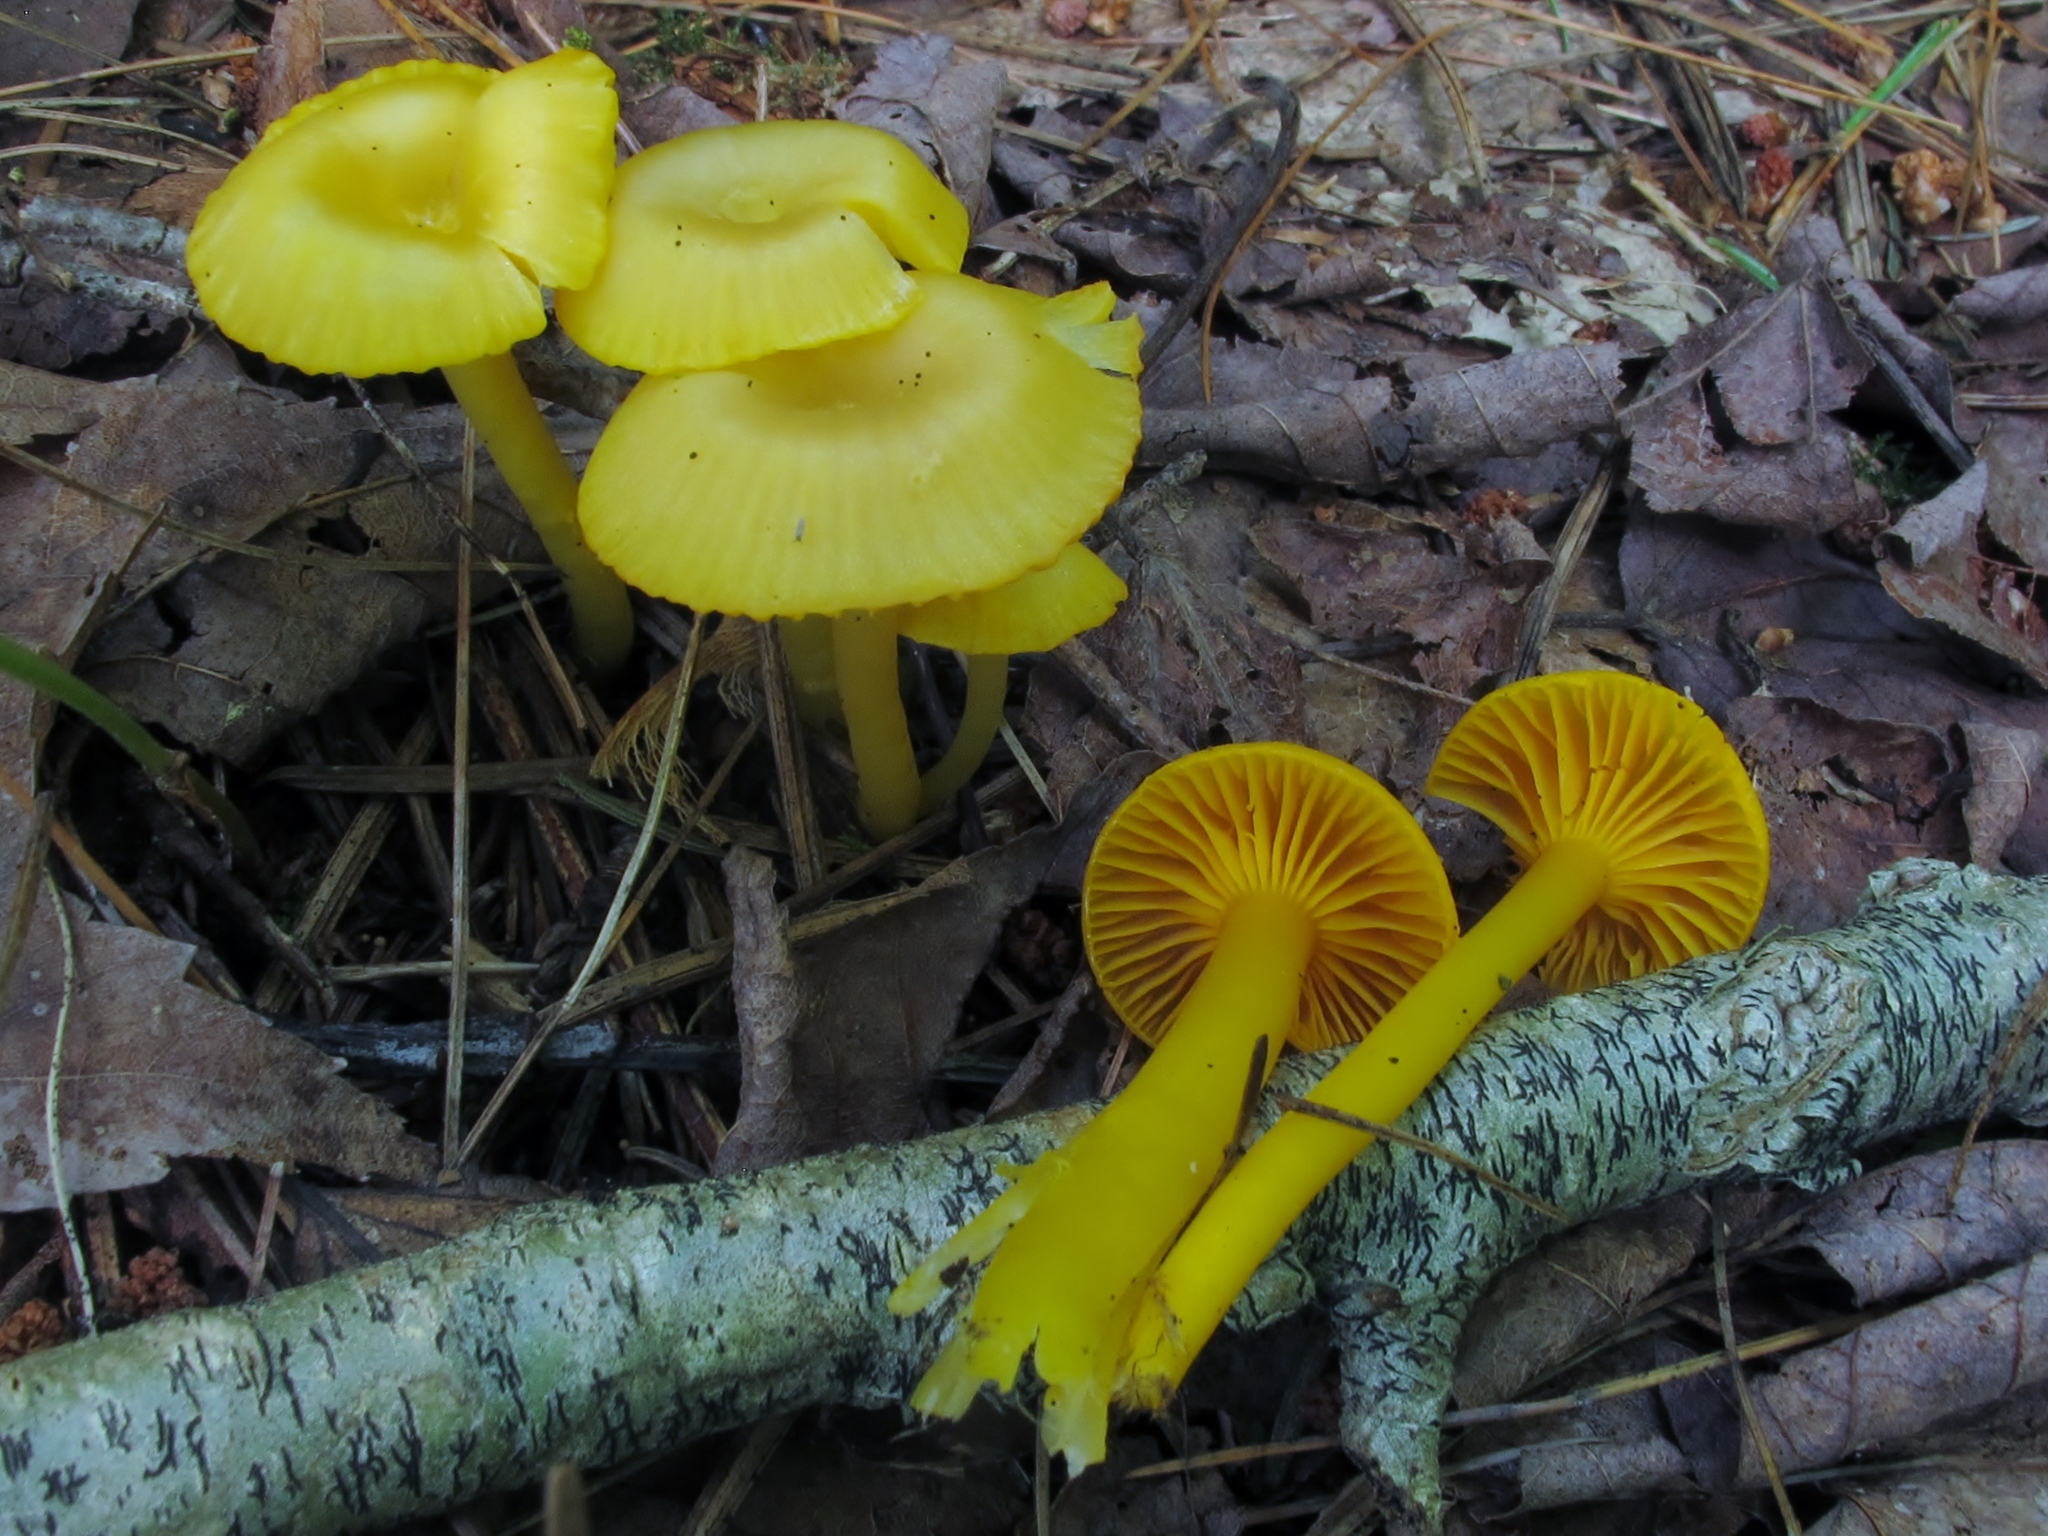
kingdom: Fungi
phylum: Basidiomycota
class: Agaricomycetes
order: Agaricales
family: Hygrophoraceae
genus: Gloioxanthomyces
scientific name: Gloioxanthomyces nitidus
